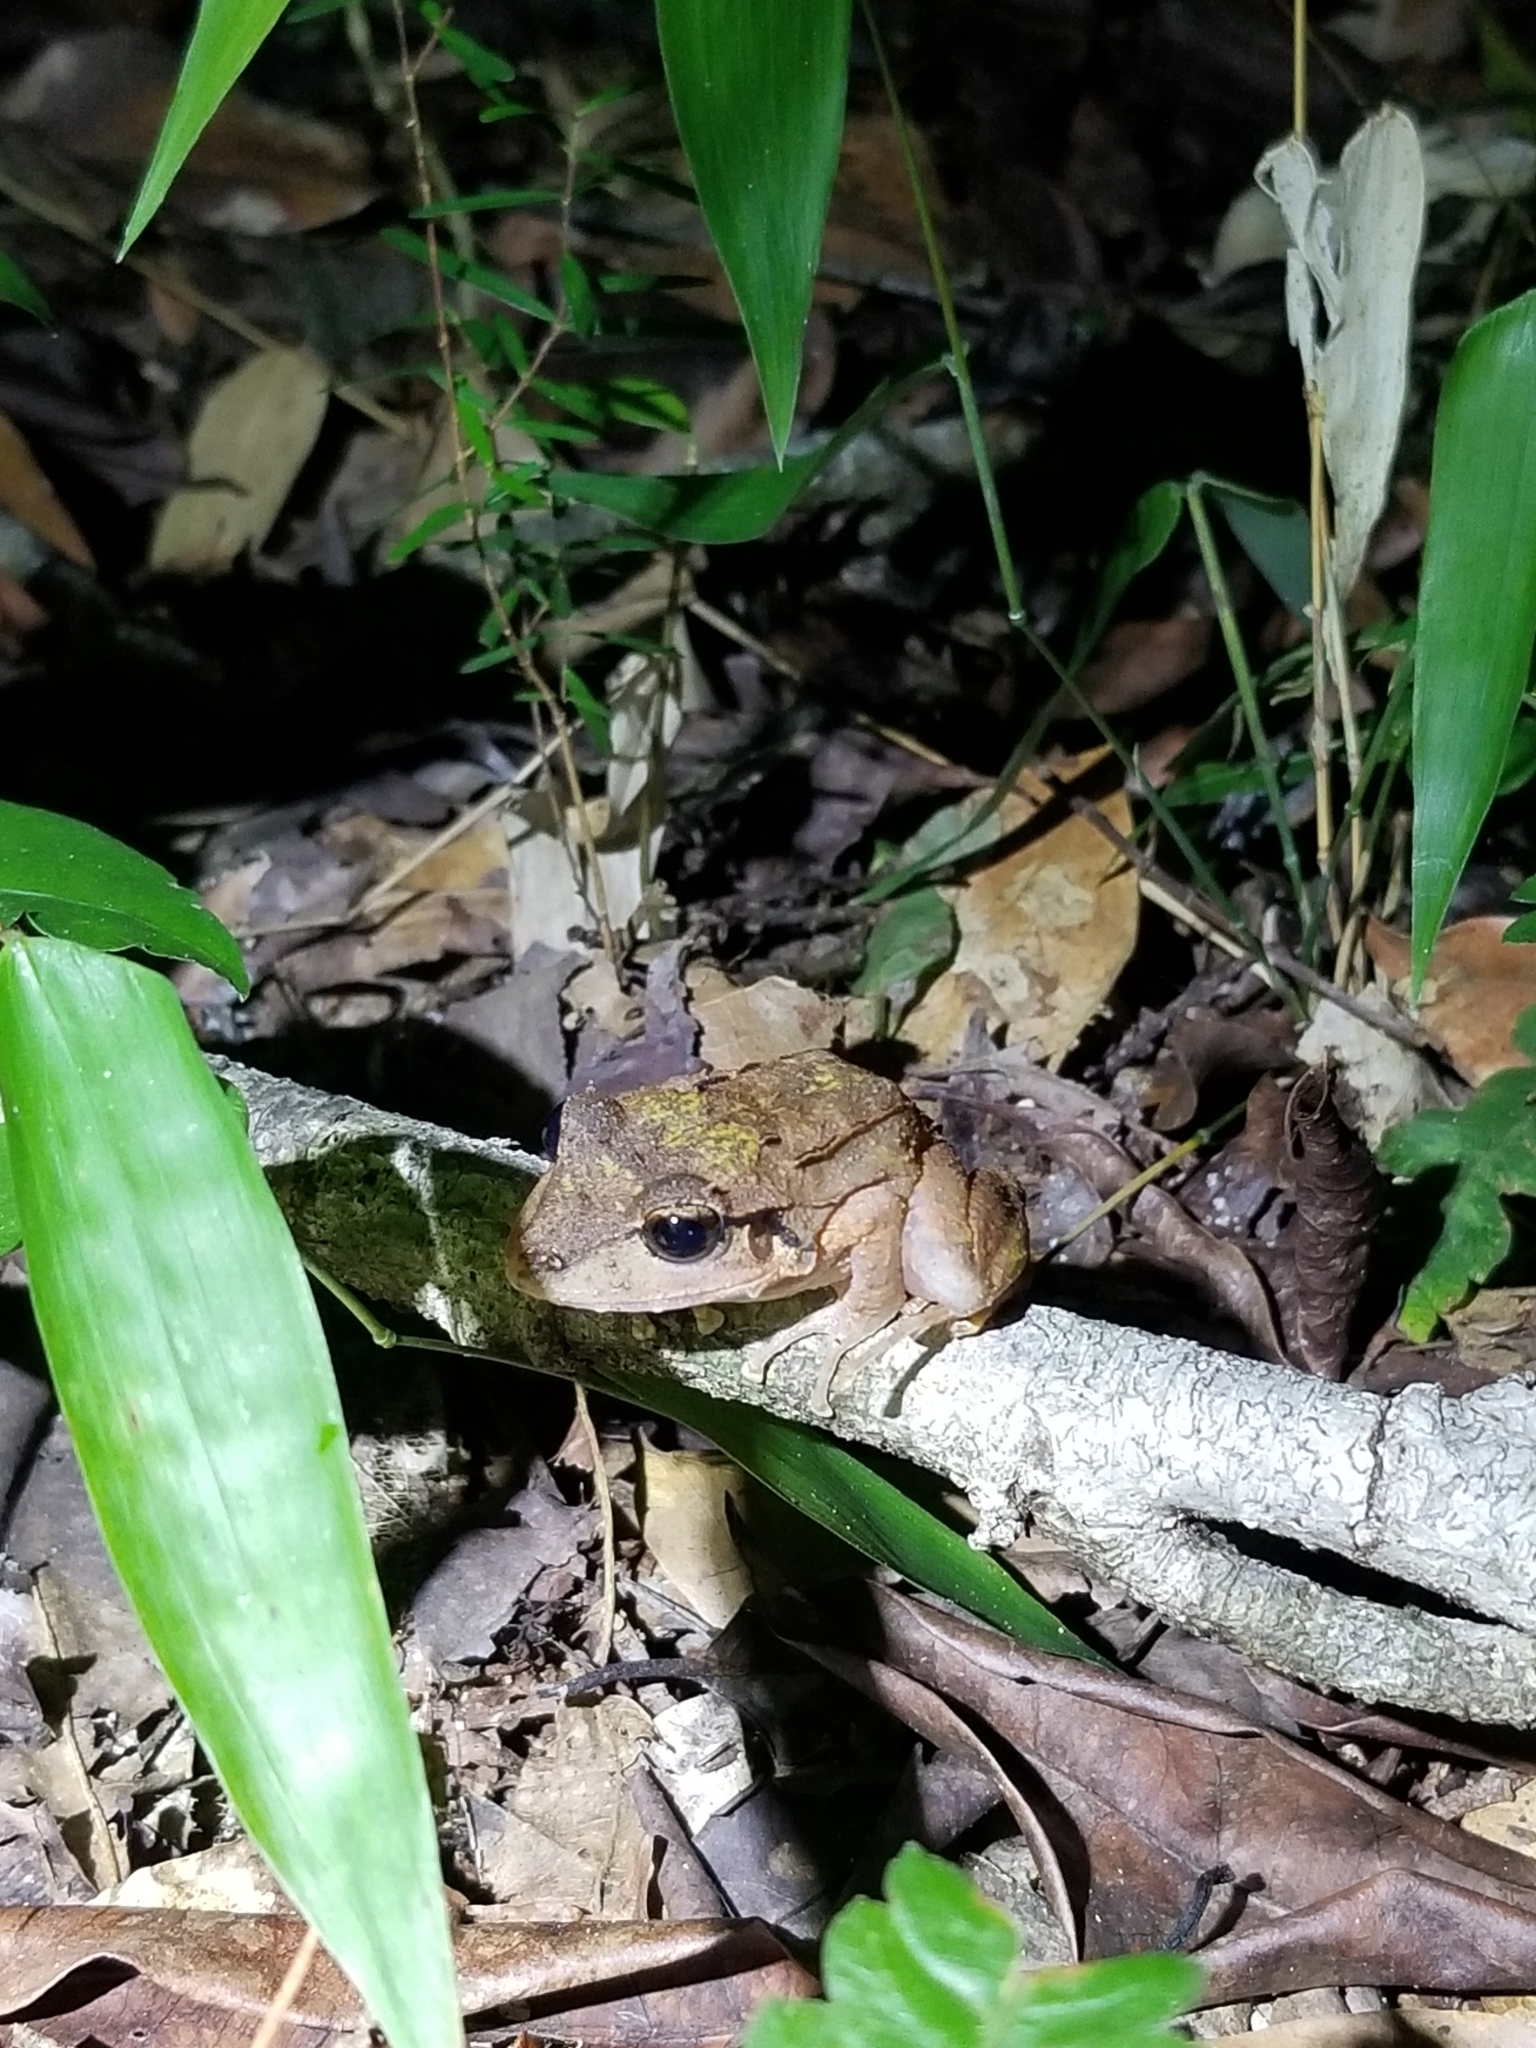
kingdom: Animalia
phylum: Chordata
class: Amphibia
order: Anura
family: Eleutherodactylidae
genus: Eleutherodactylus
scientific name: Eleutherodactylus inoptatus
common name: Hispaniolan giant frog
